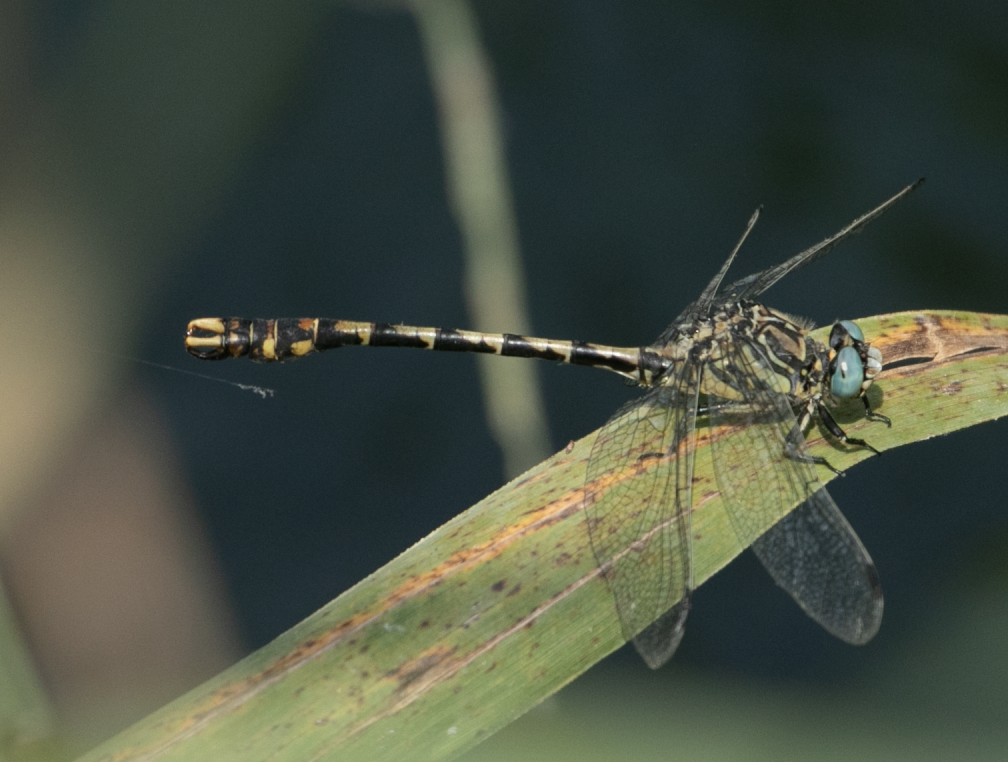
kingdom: Animalia
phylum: Arthropoda
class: Insecta
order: Odonata
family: Gomphidae
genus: Onychogomphus
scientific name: Onychogomphus uncatus
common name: Large pincertail
